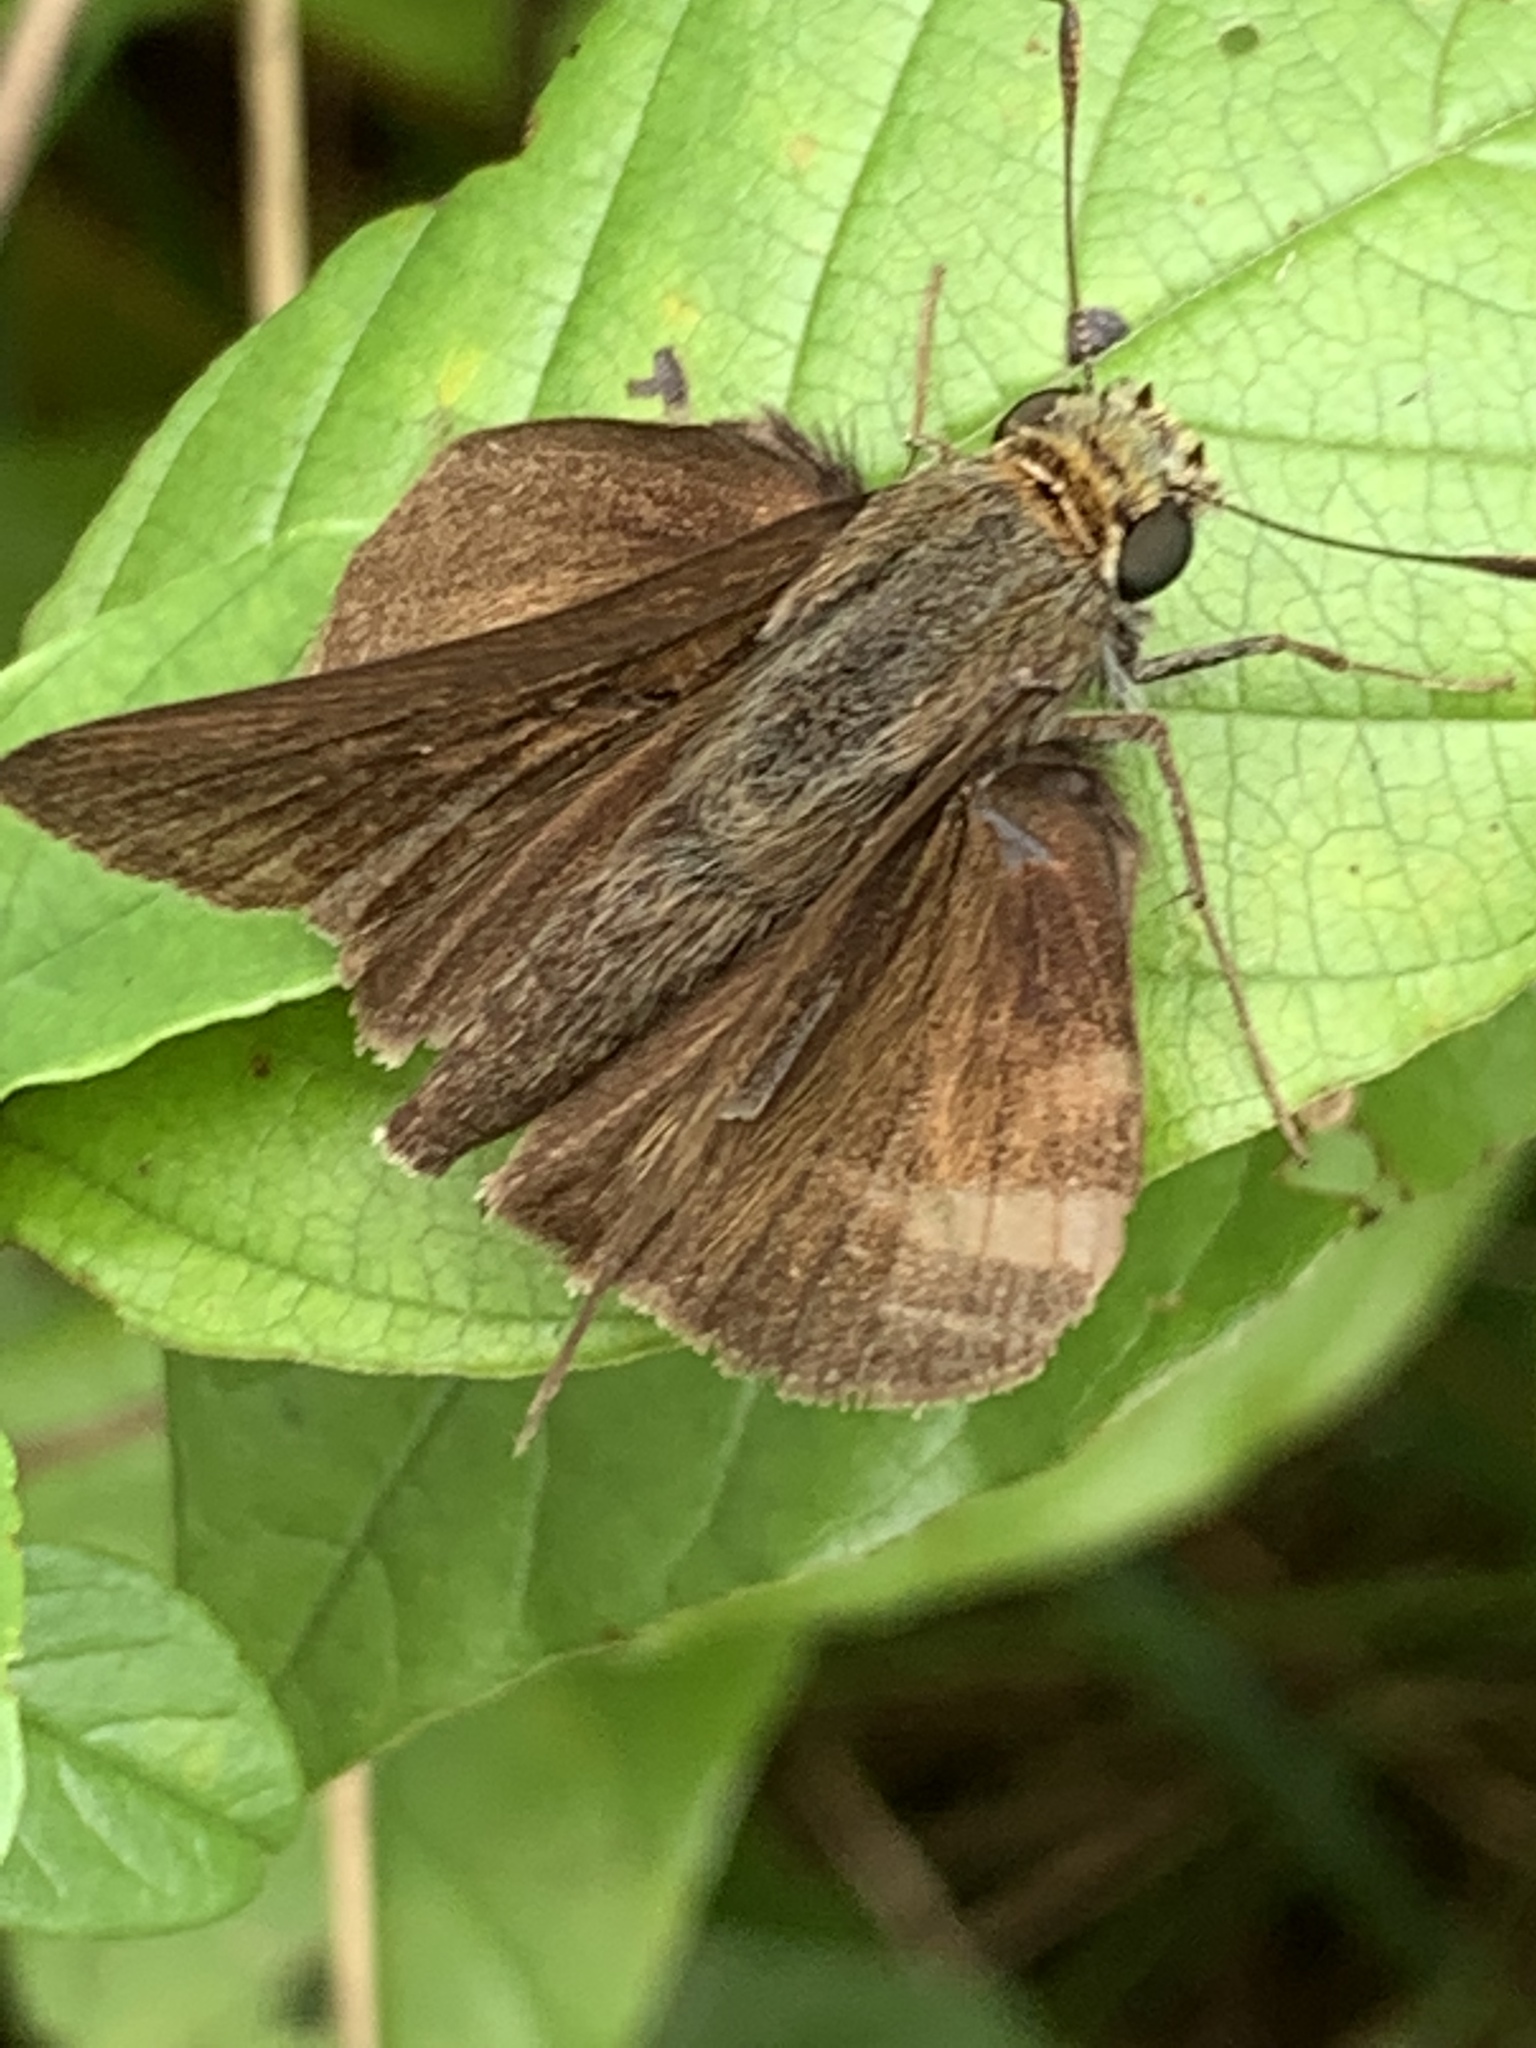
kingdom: Animalia
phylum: Arthropoda
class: Insecta
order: Lepidoptera
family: Hesperiidae
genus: Euphyes
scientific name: Euphyes vestris
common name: Dun skipper
